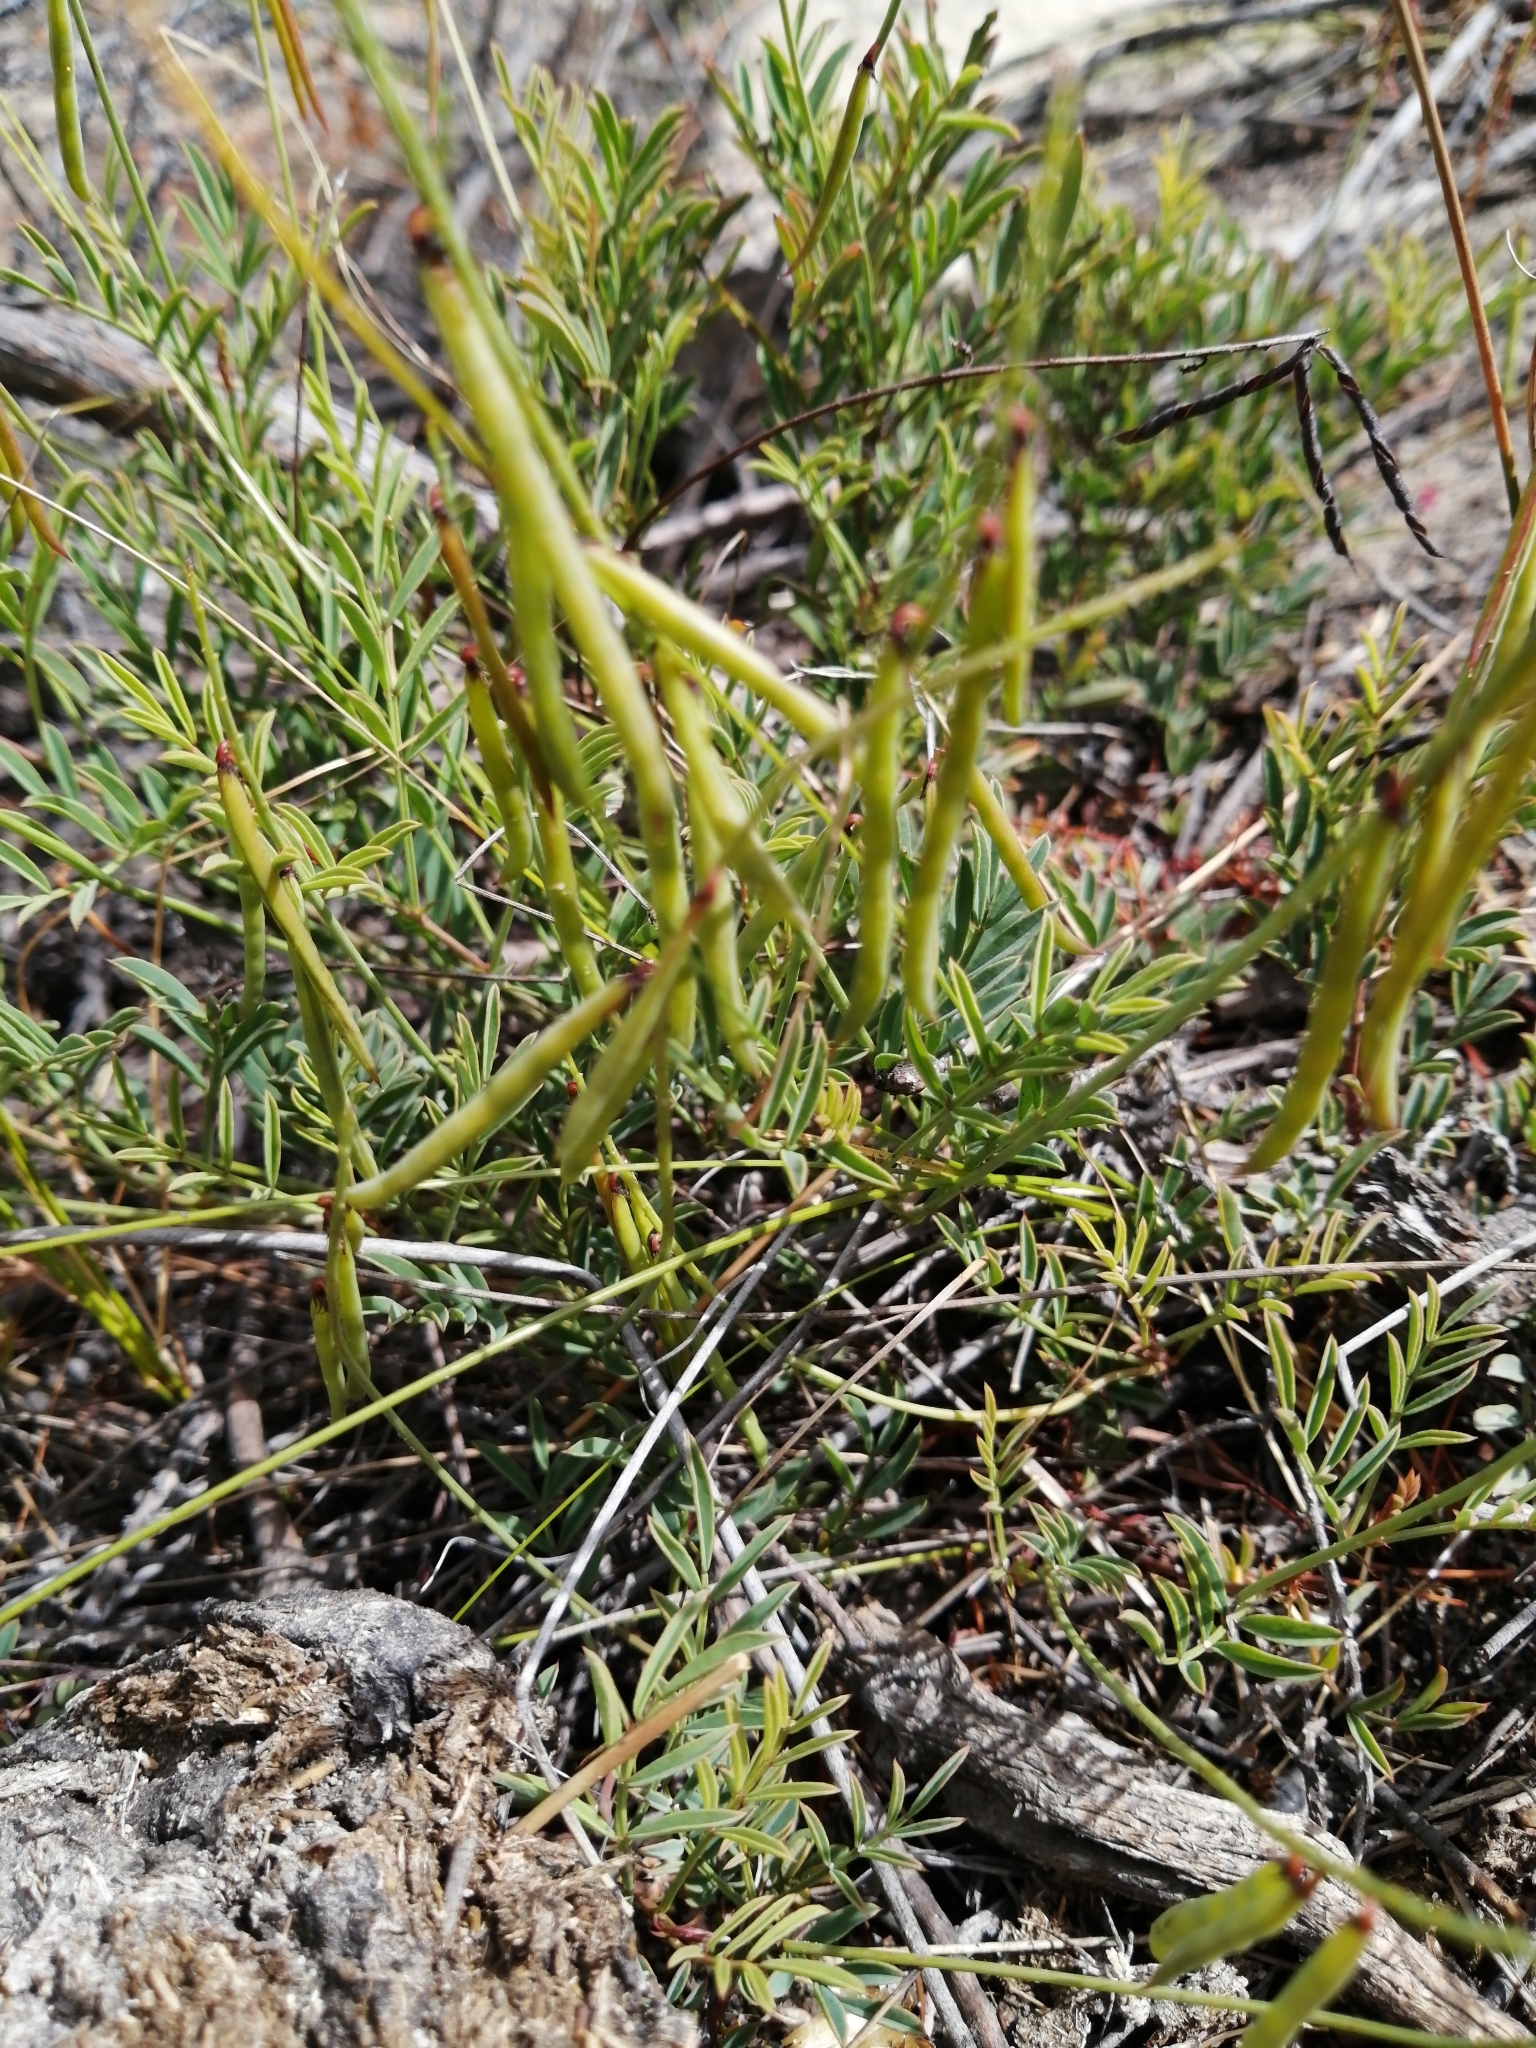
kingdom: Plantae
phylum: Tracheophyta
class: Magnoliopsida
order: Fabales
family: Fabaceae
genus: Indigofera
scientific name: Indigofera capillaris
